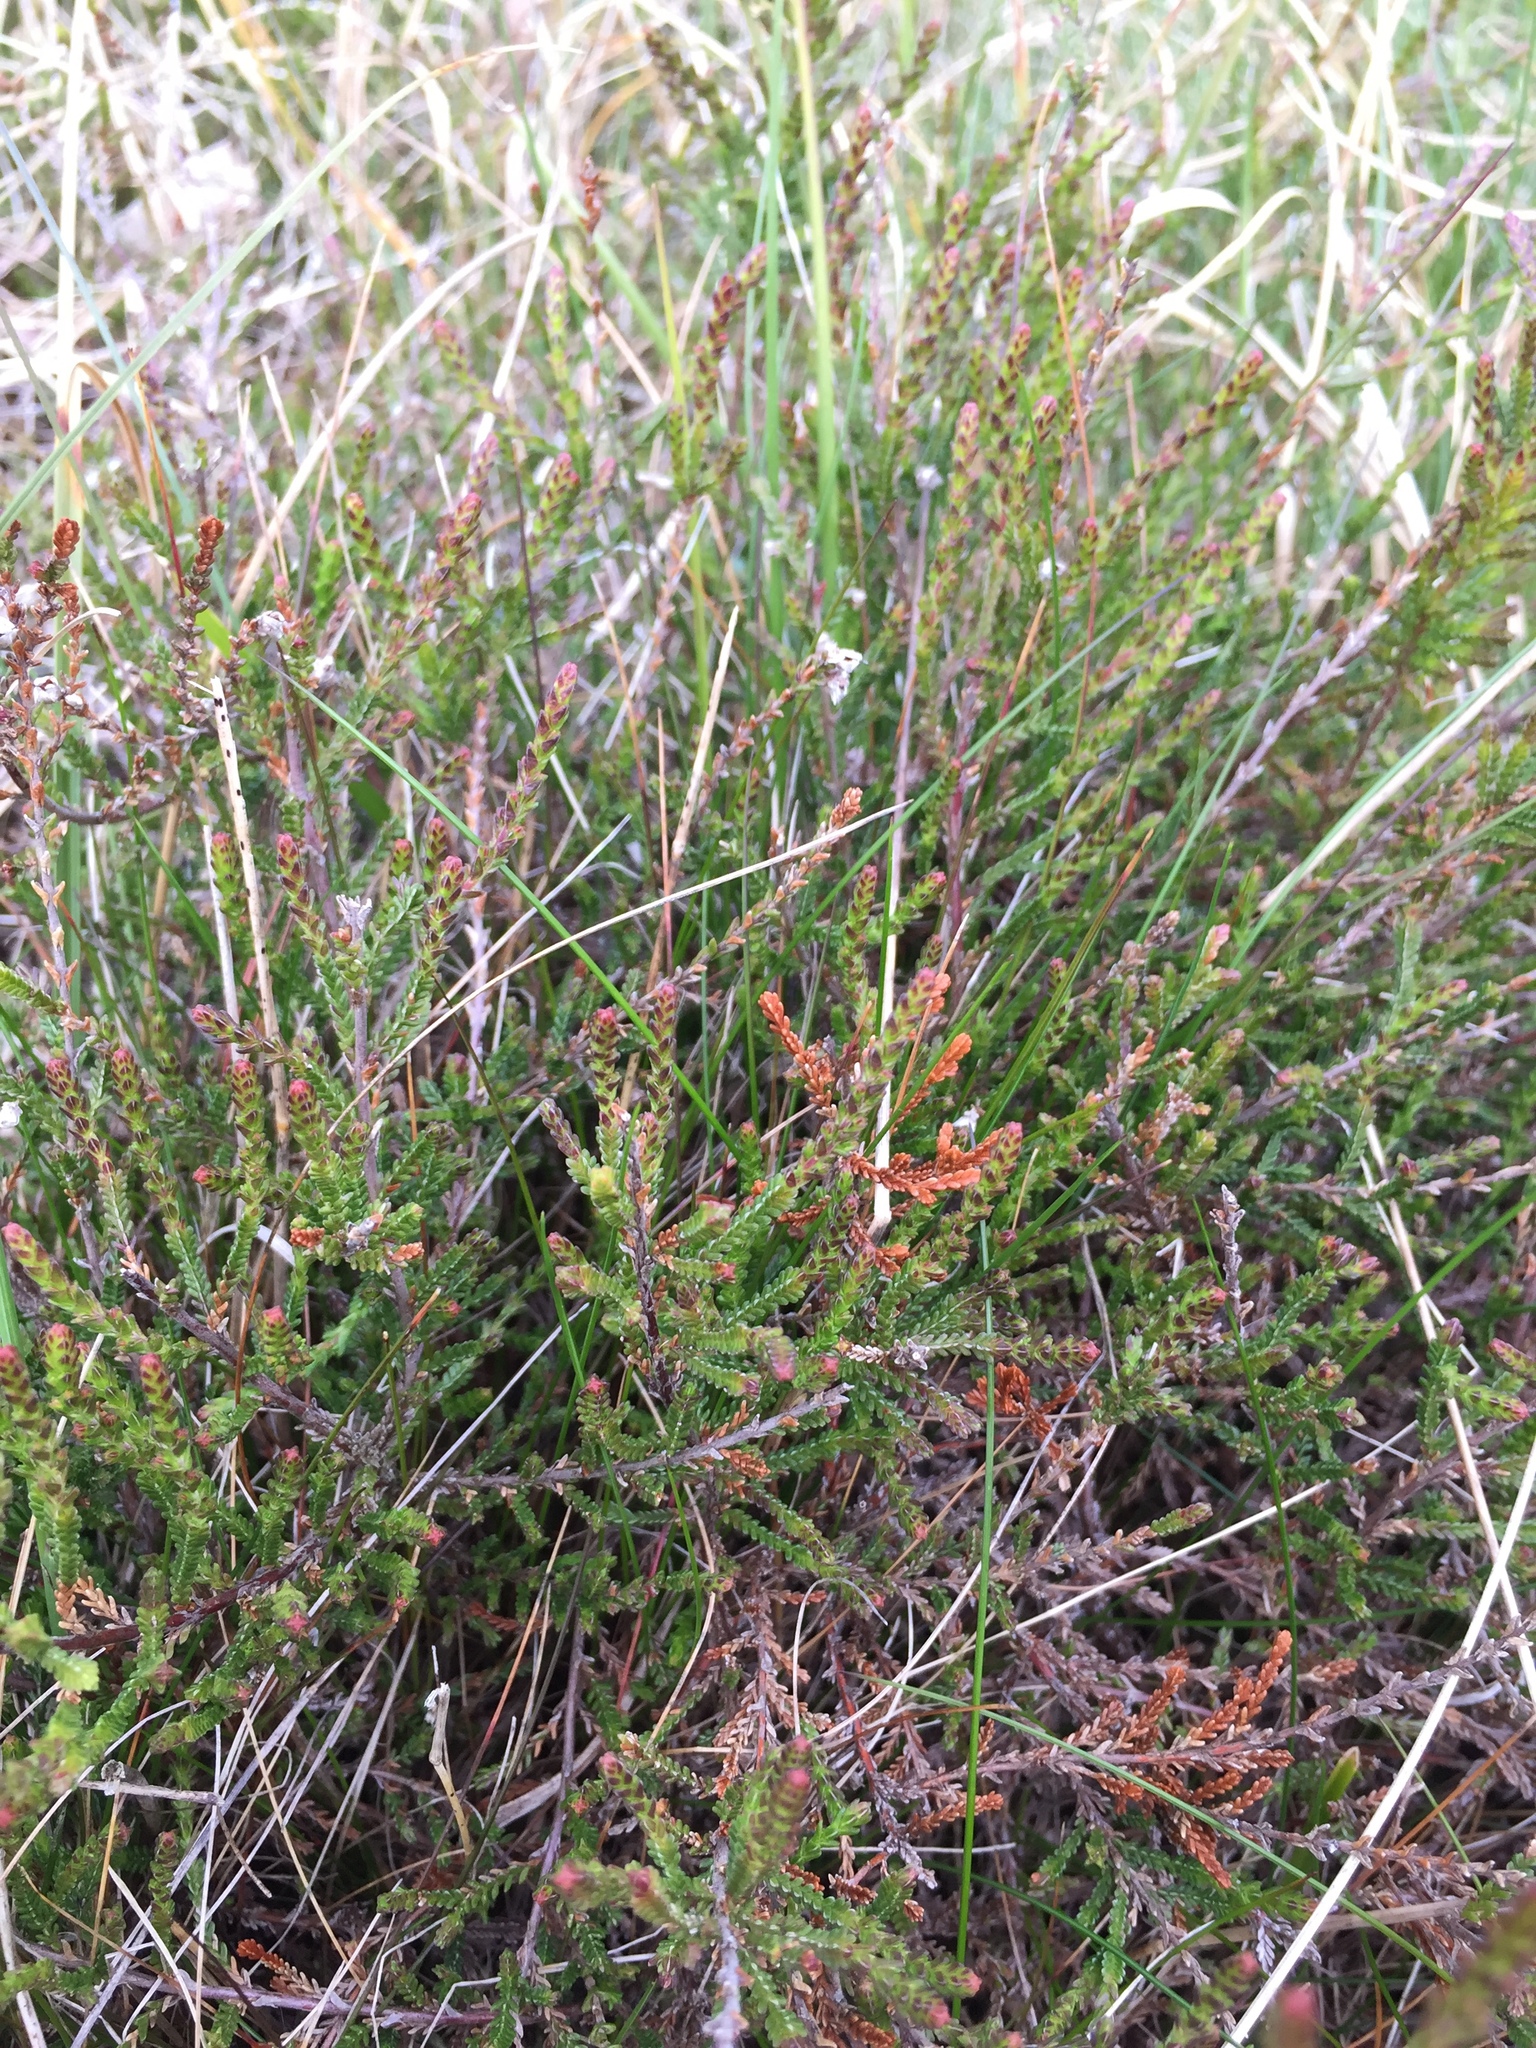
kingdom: Plantae
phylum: Tracheophyta
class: Magnoliopsida
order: Ericales
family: Ericaceae
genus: Calluna
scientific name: Calluna vulgaris
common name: Heather
